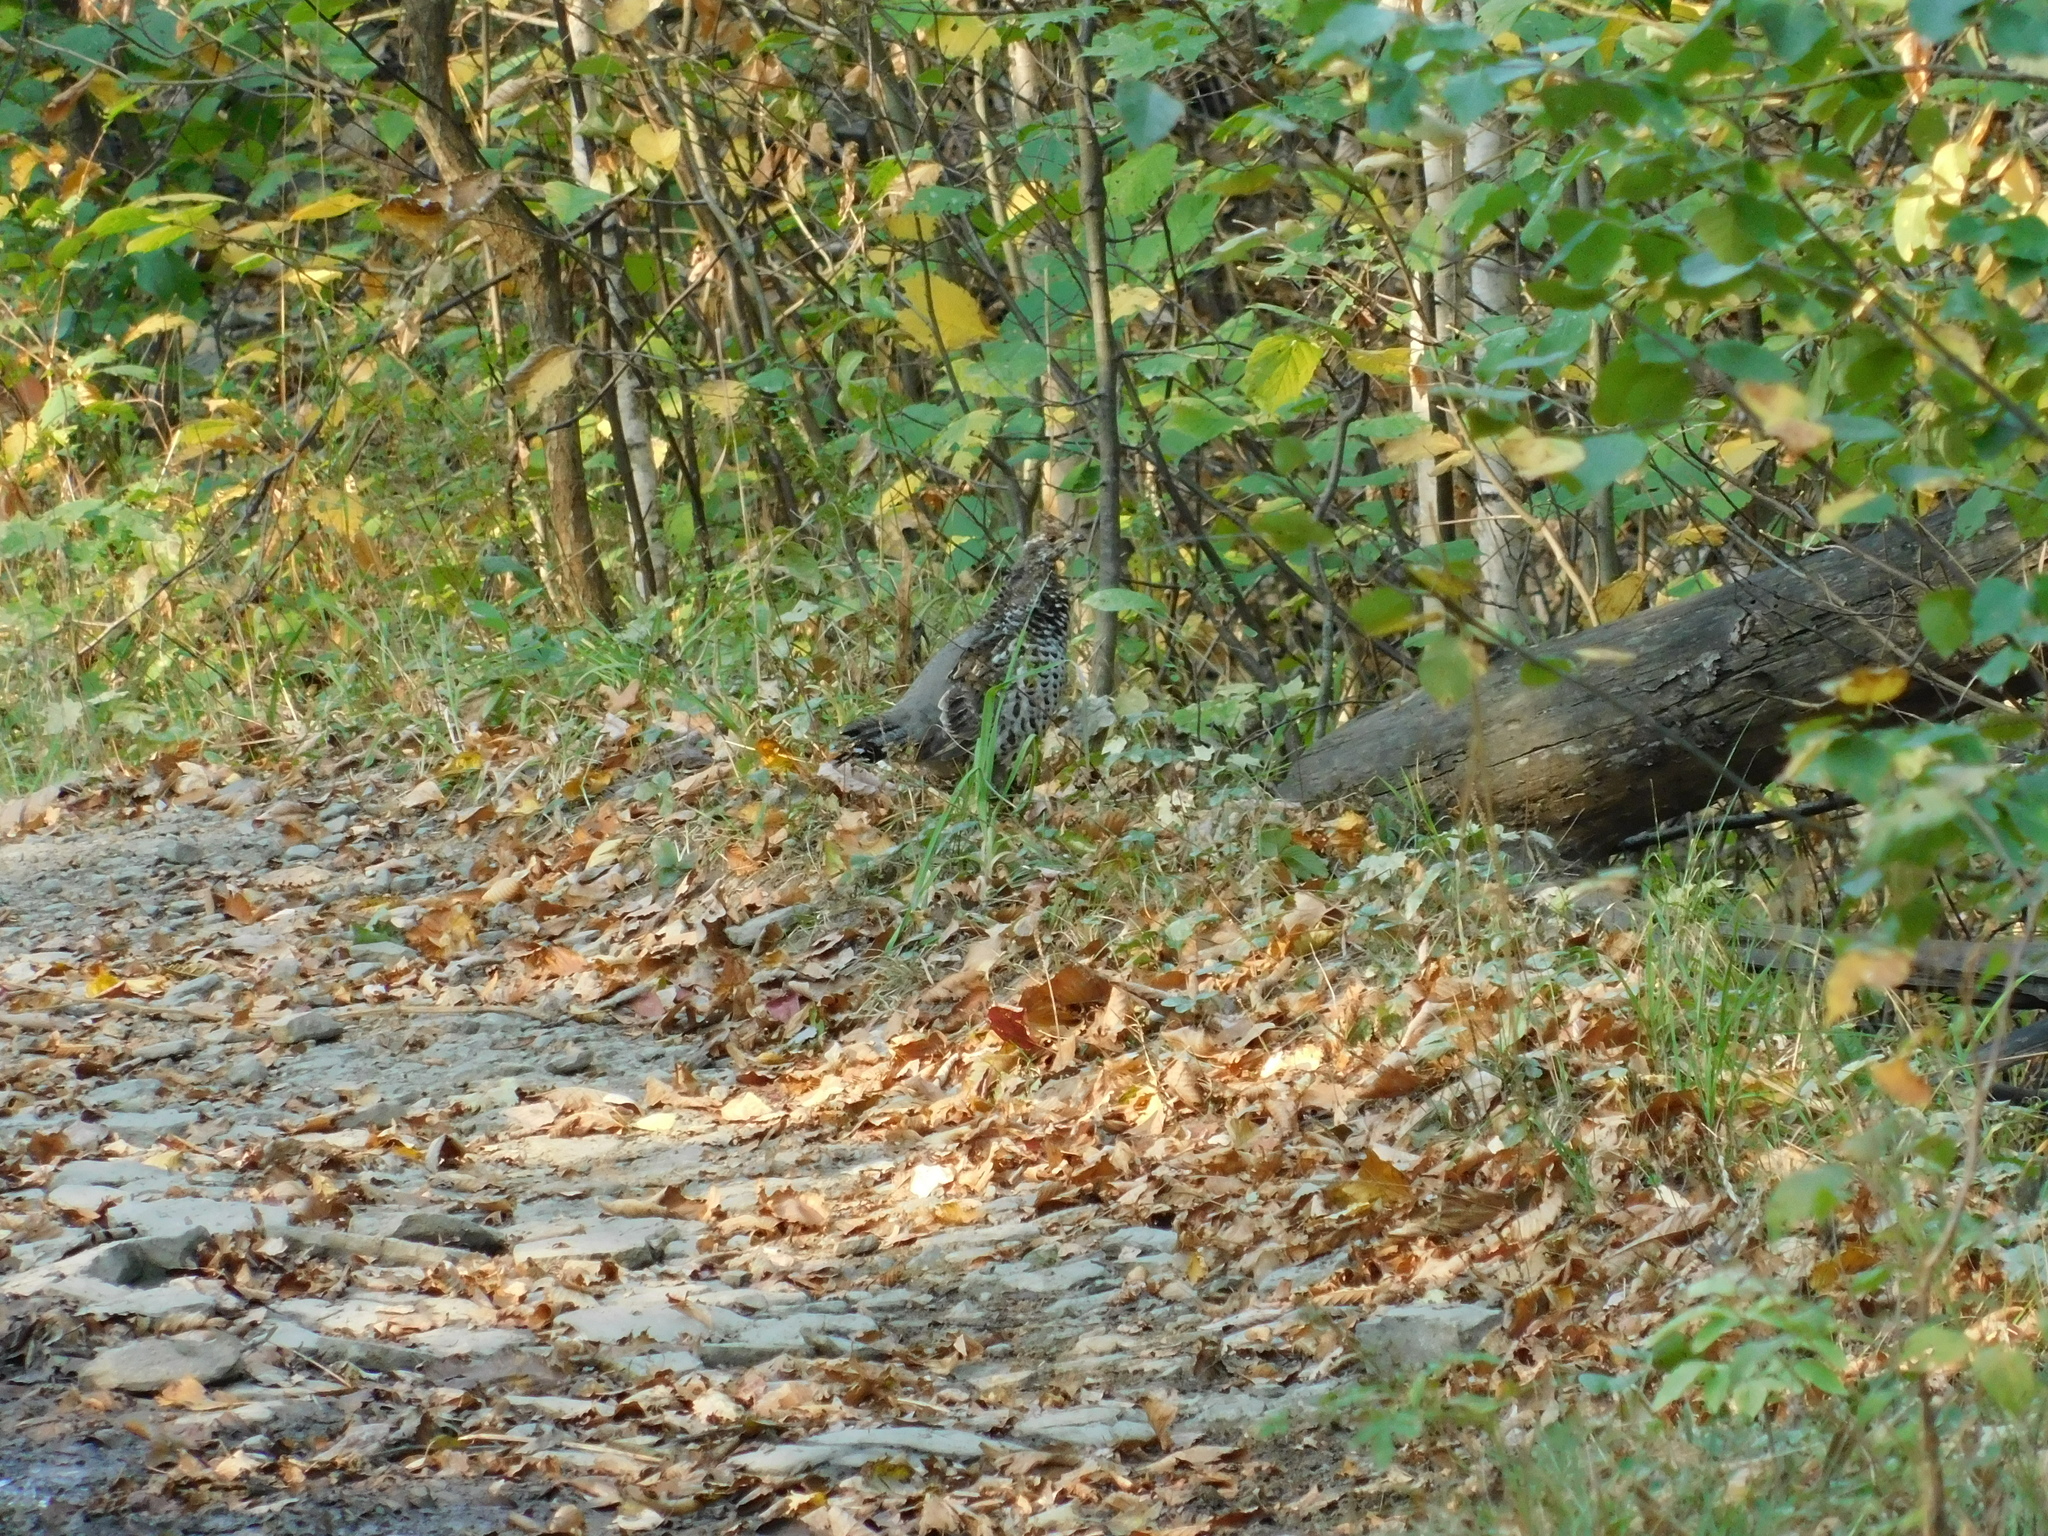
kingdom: Animalia
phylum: Chordata
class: Aves
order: Galliformes
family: Phasianidae
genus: Tetrastes
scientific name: Tetrastes bonasia
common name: Hazel grouse
